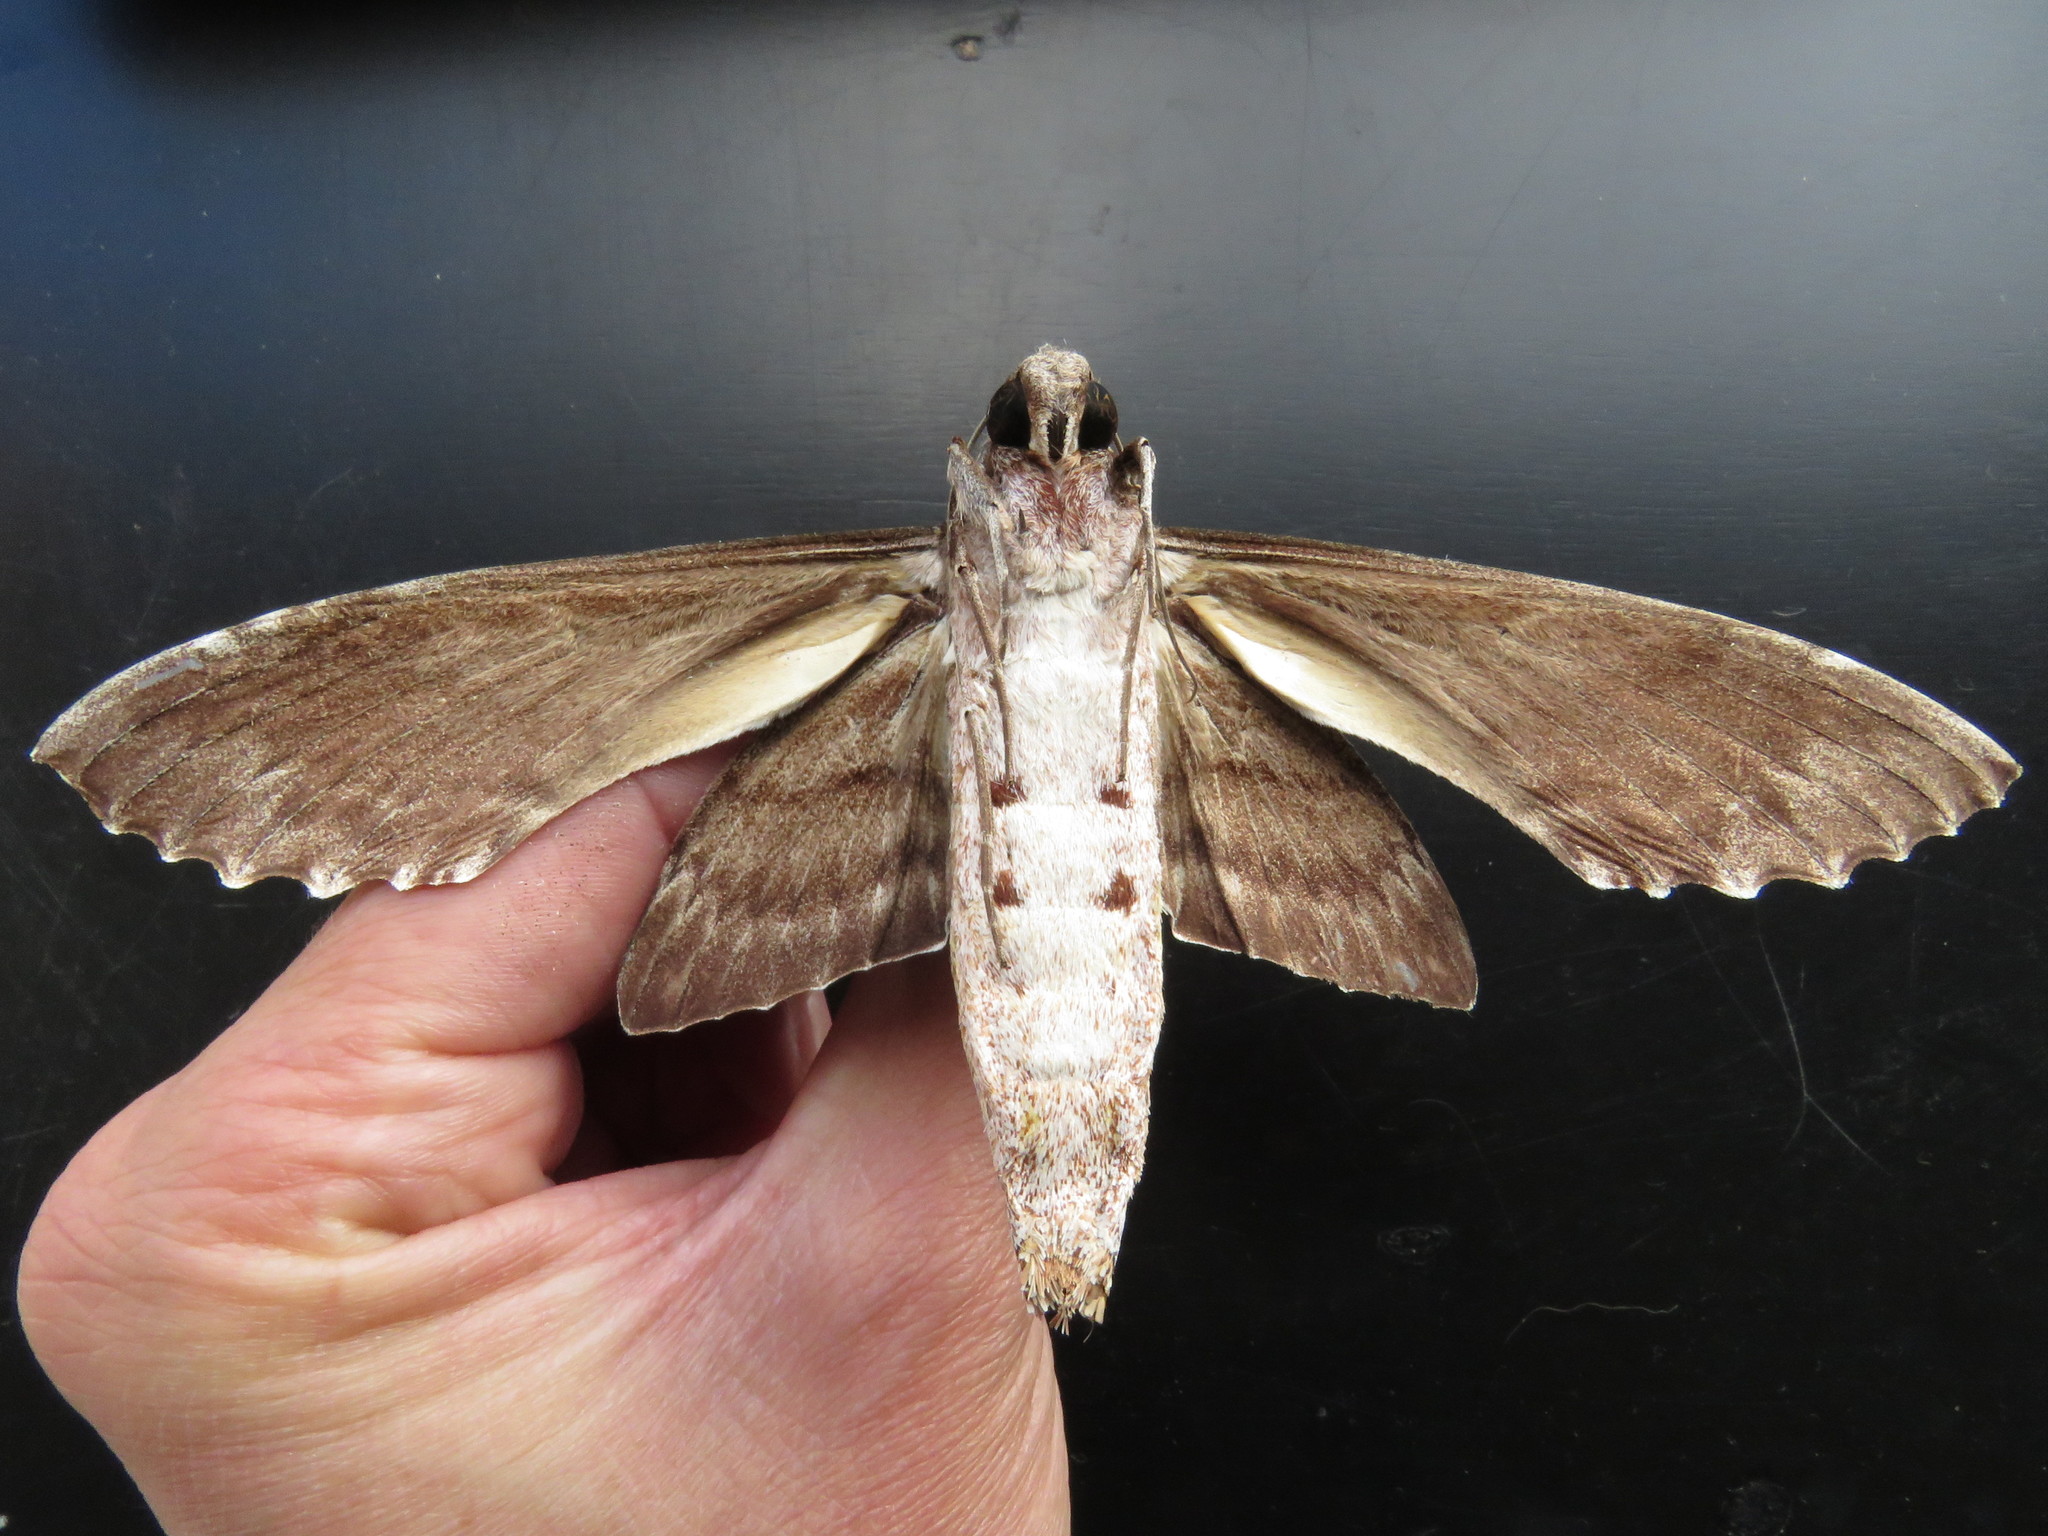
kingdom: Animalia
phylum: Arthropoda
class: Insecta
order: Lepidoptera
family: Sphingidae
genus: Pseudosphinx
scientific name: Pseudosphinx tetrio
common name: Tetrio sphinx
